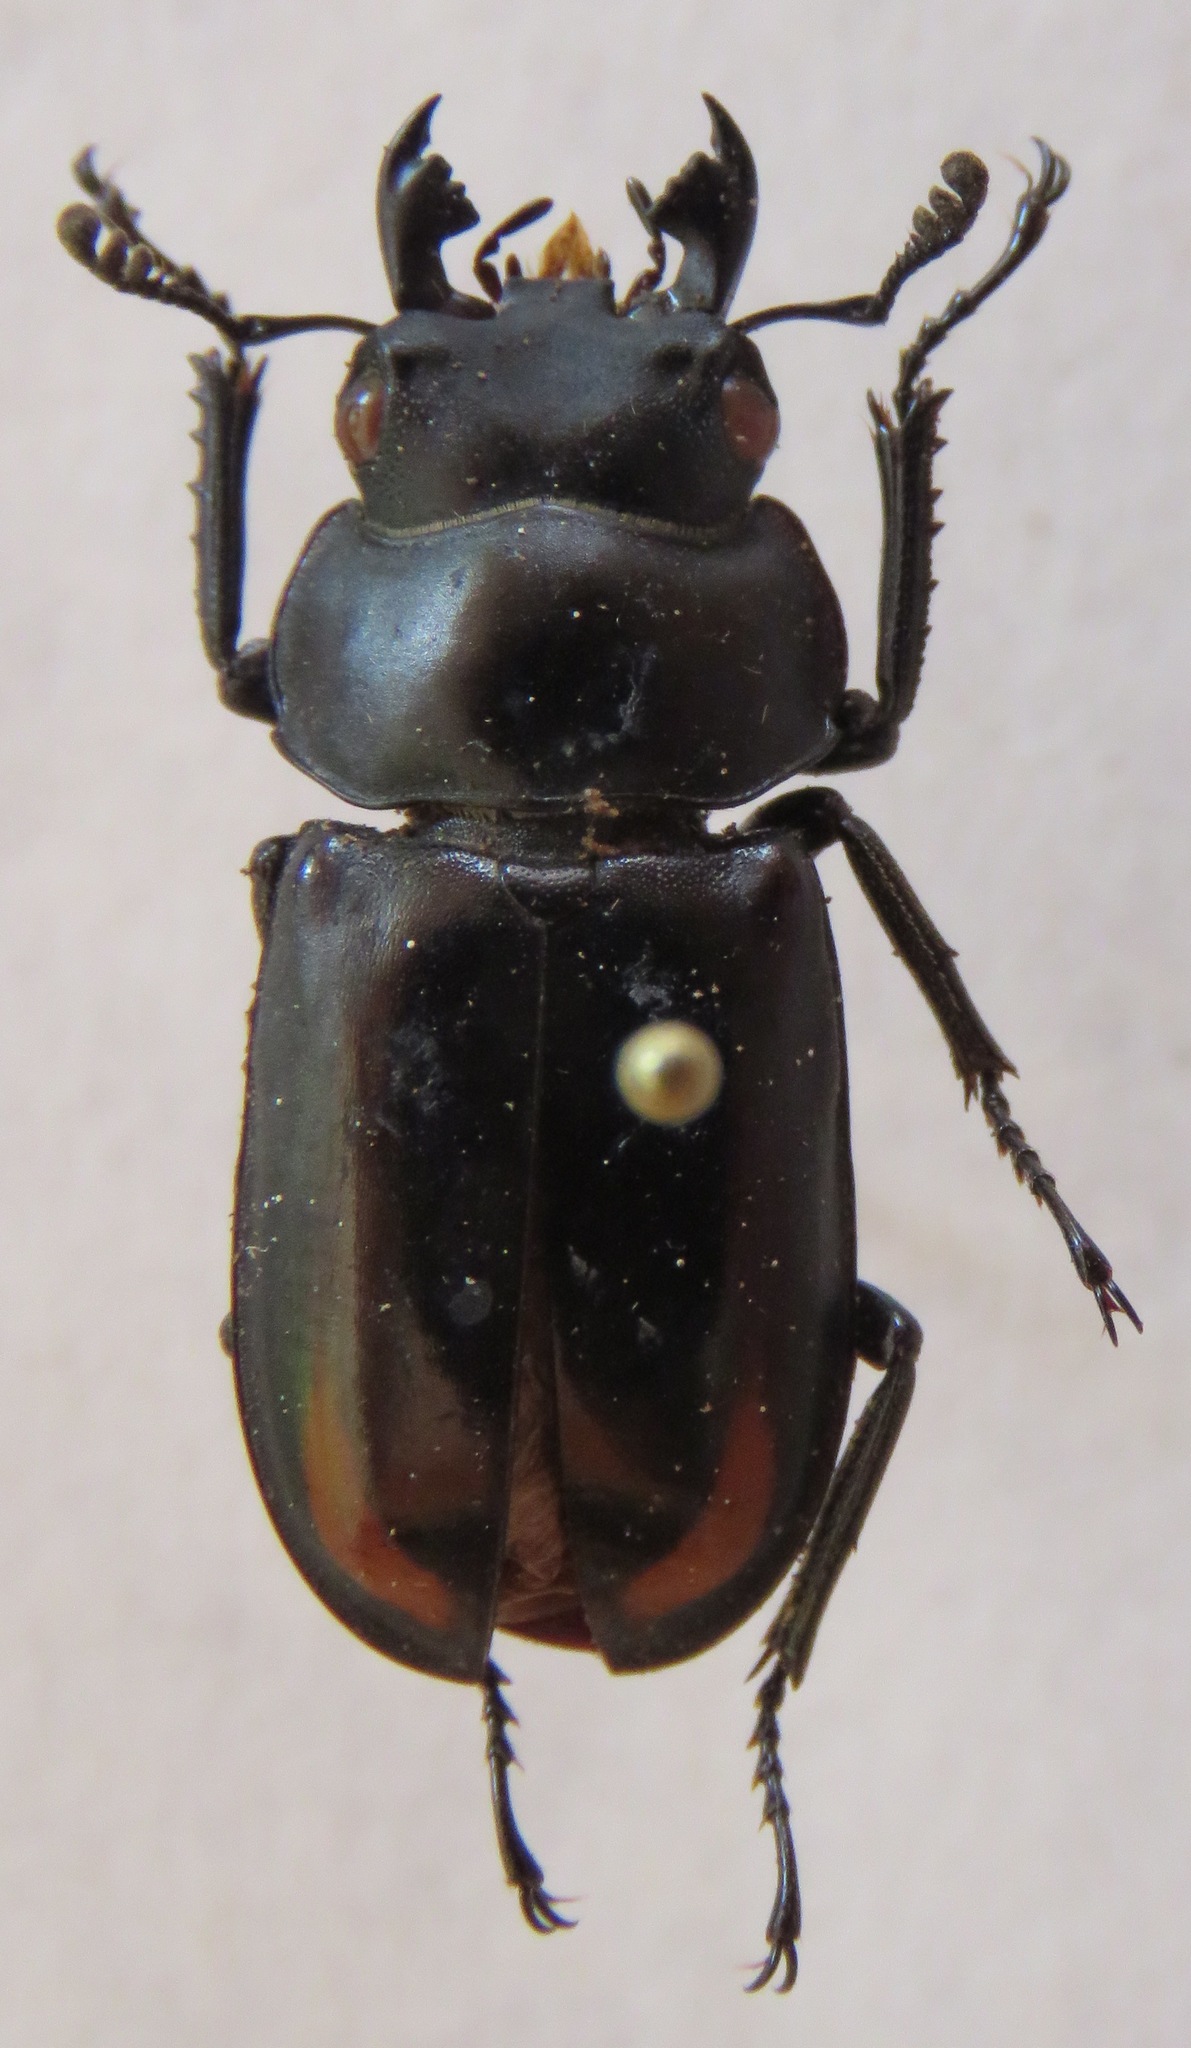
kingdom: Animalia
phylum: Arthropoda
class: Insecta
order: Coleoptera
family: Lucanidae
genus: Falcicornis
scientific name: Falcicornis rufonotatus
